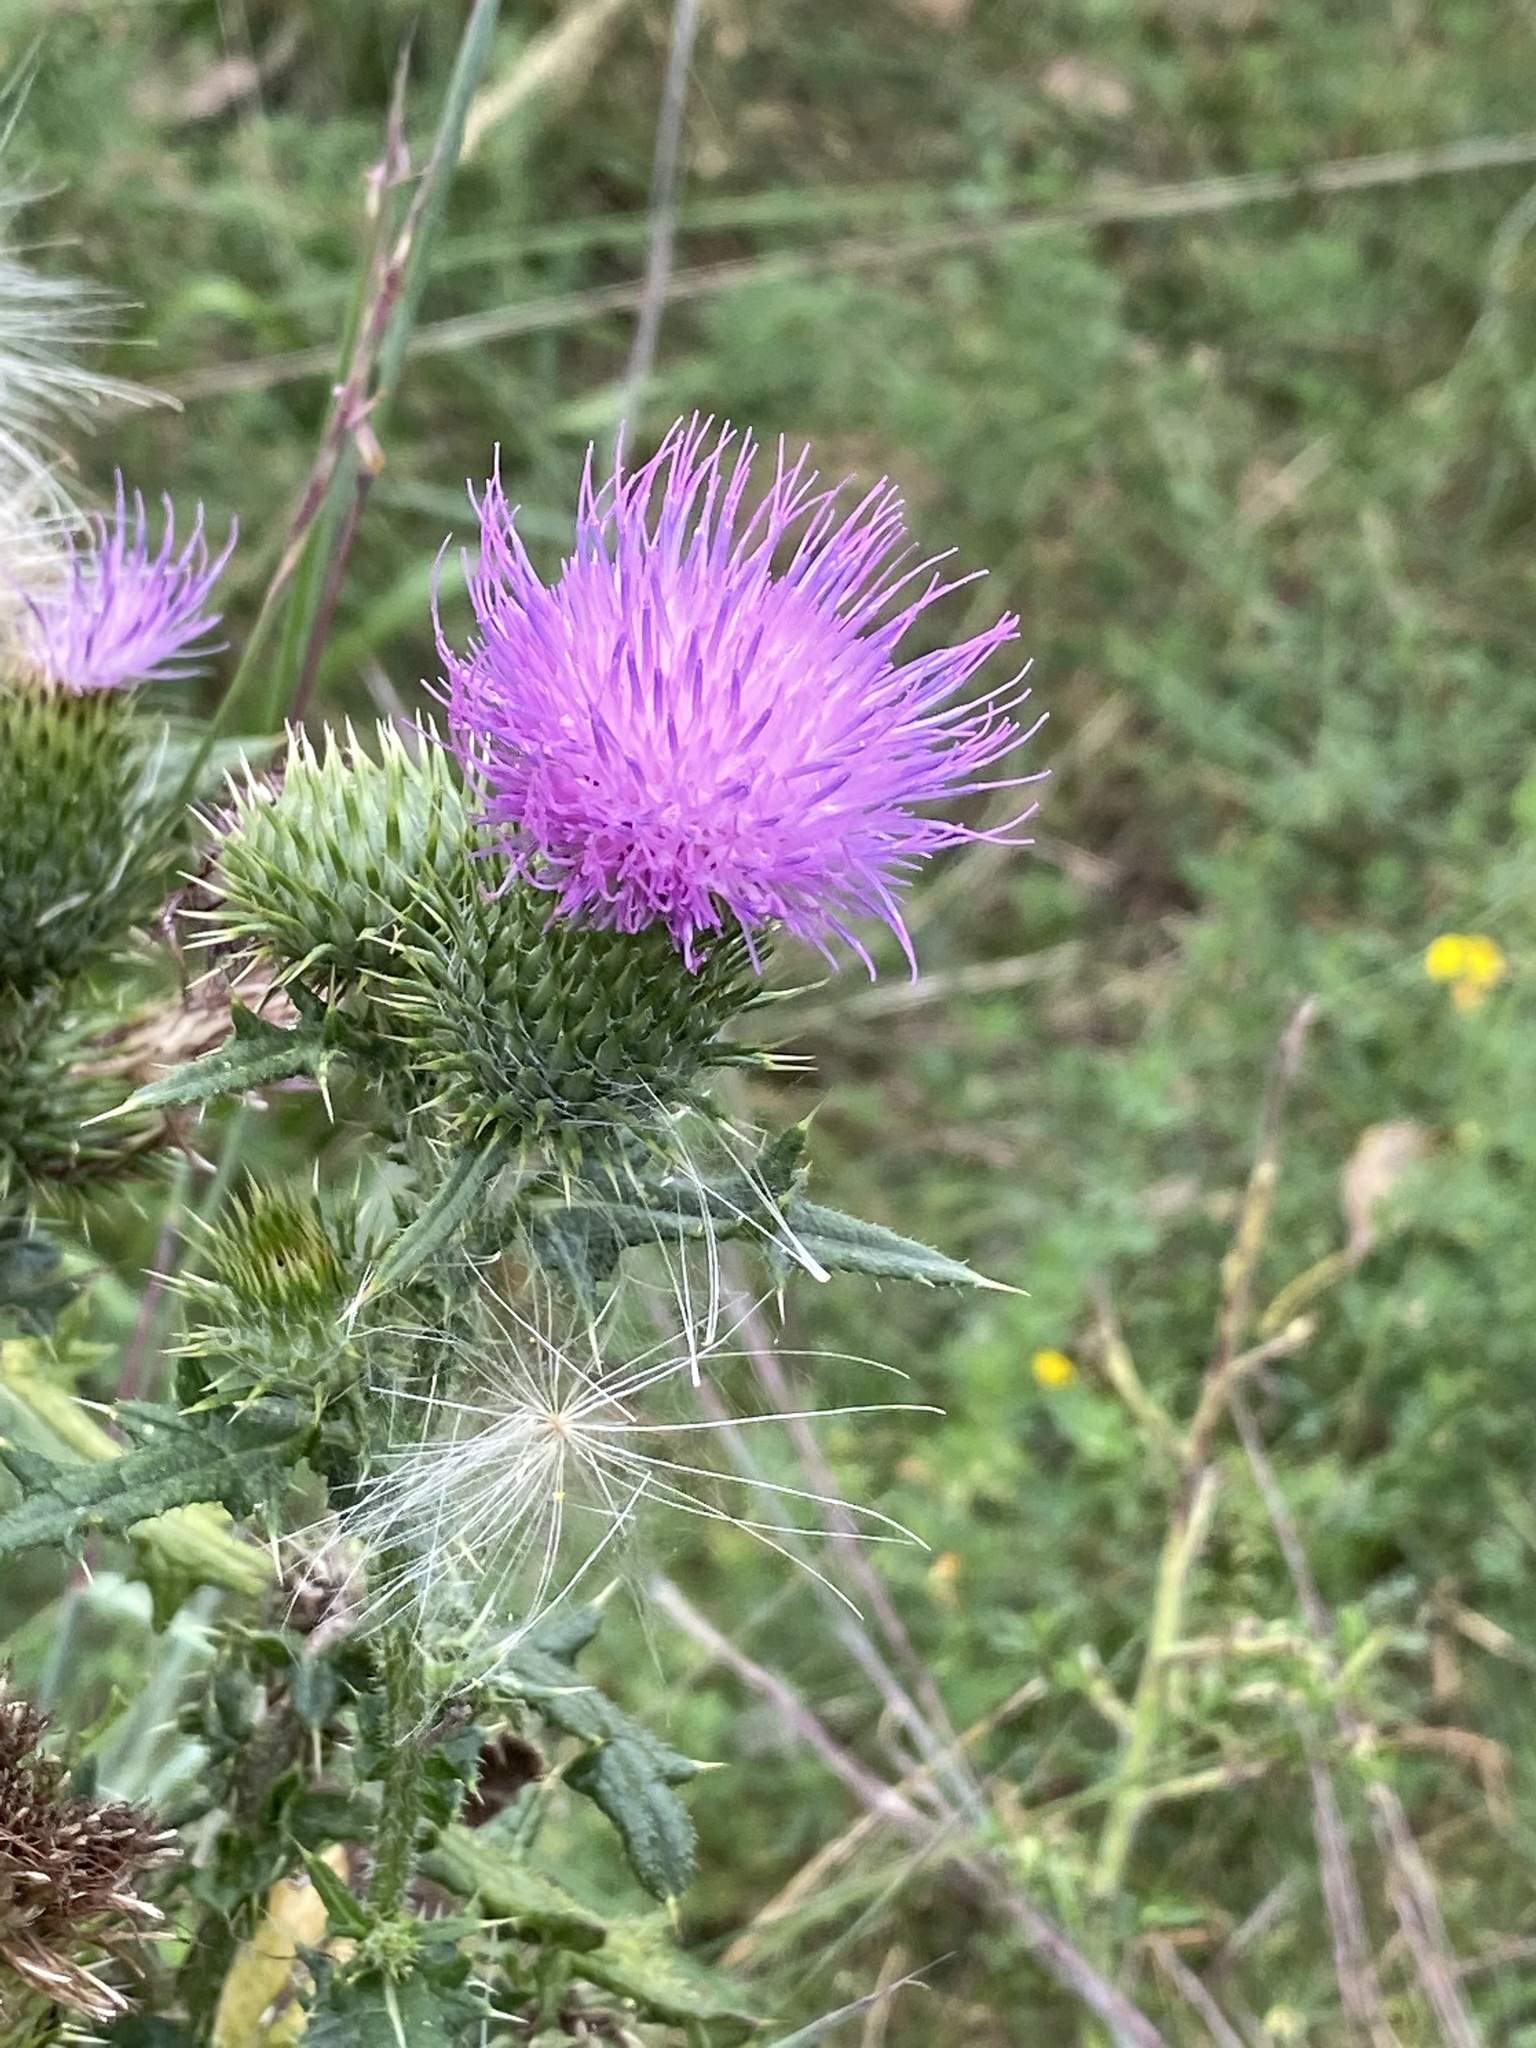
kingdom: Plantae
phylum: Tracheophyta
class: Magnoliopsida
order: Asterales
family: Asteraceae
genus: Cirsium
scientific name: Cirsium vulgare
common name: Bull thistle
